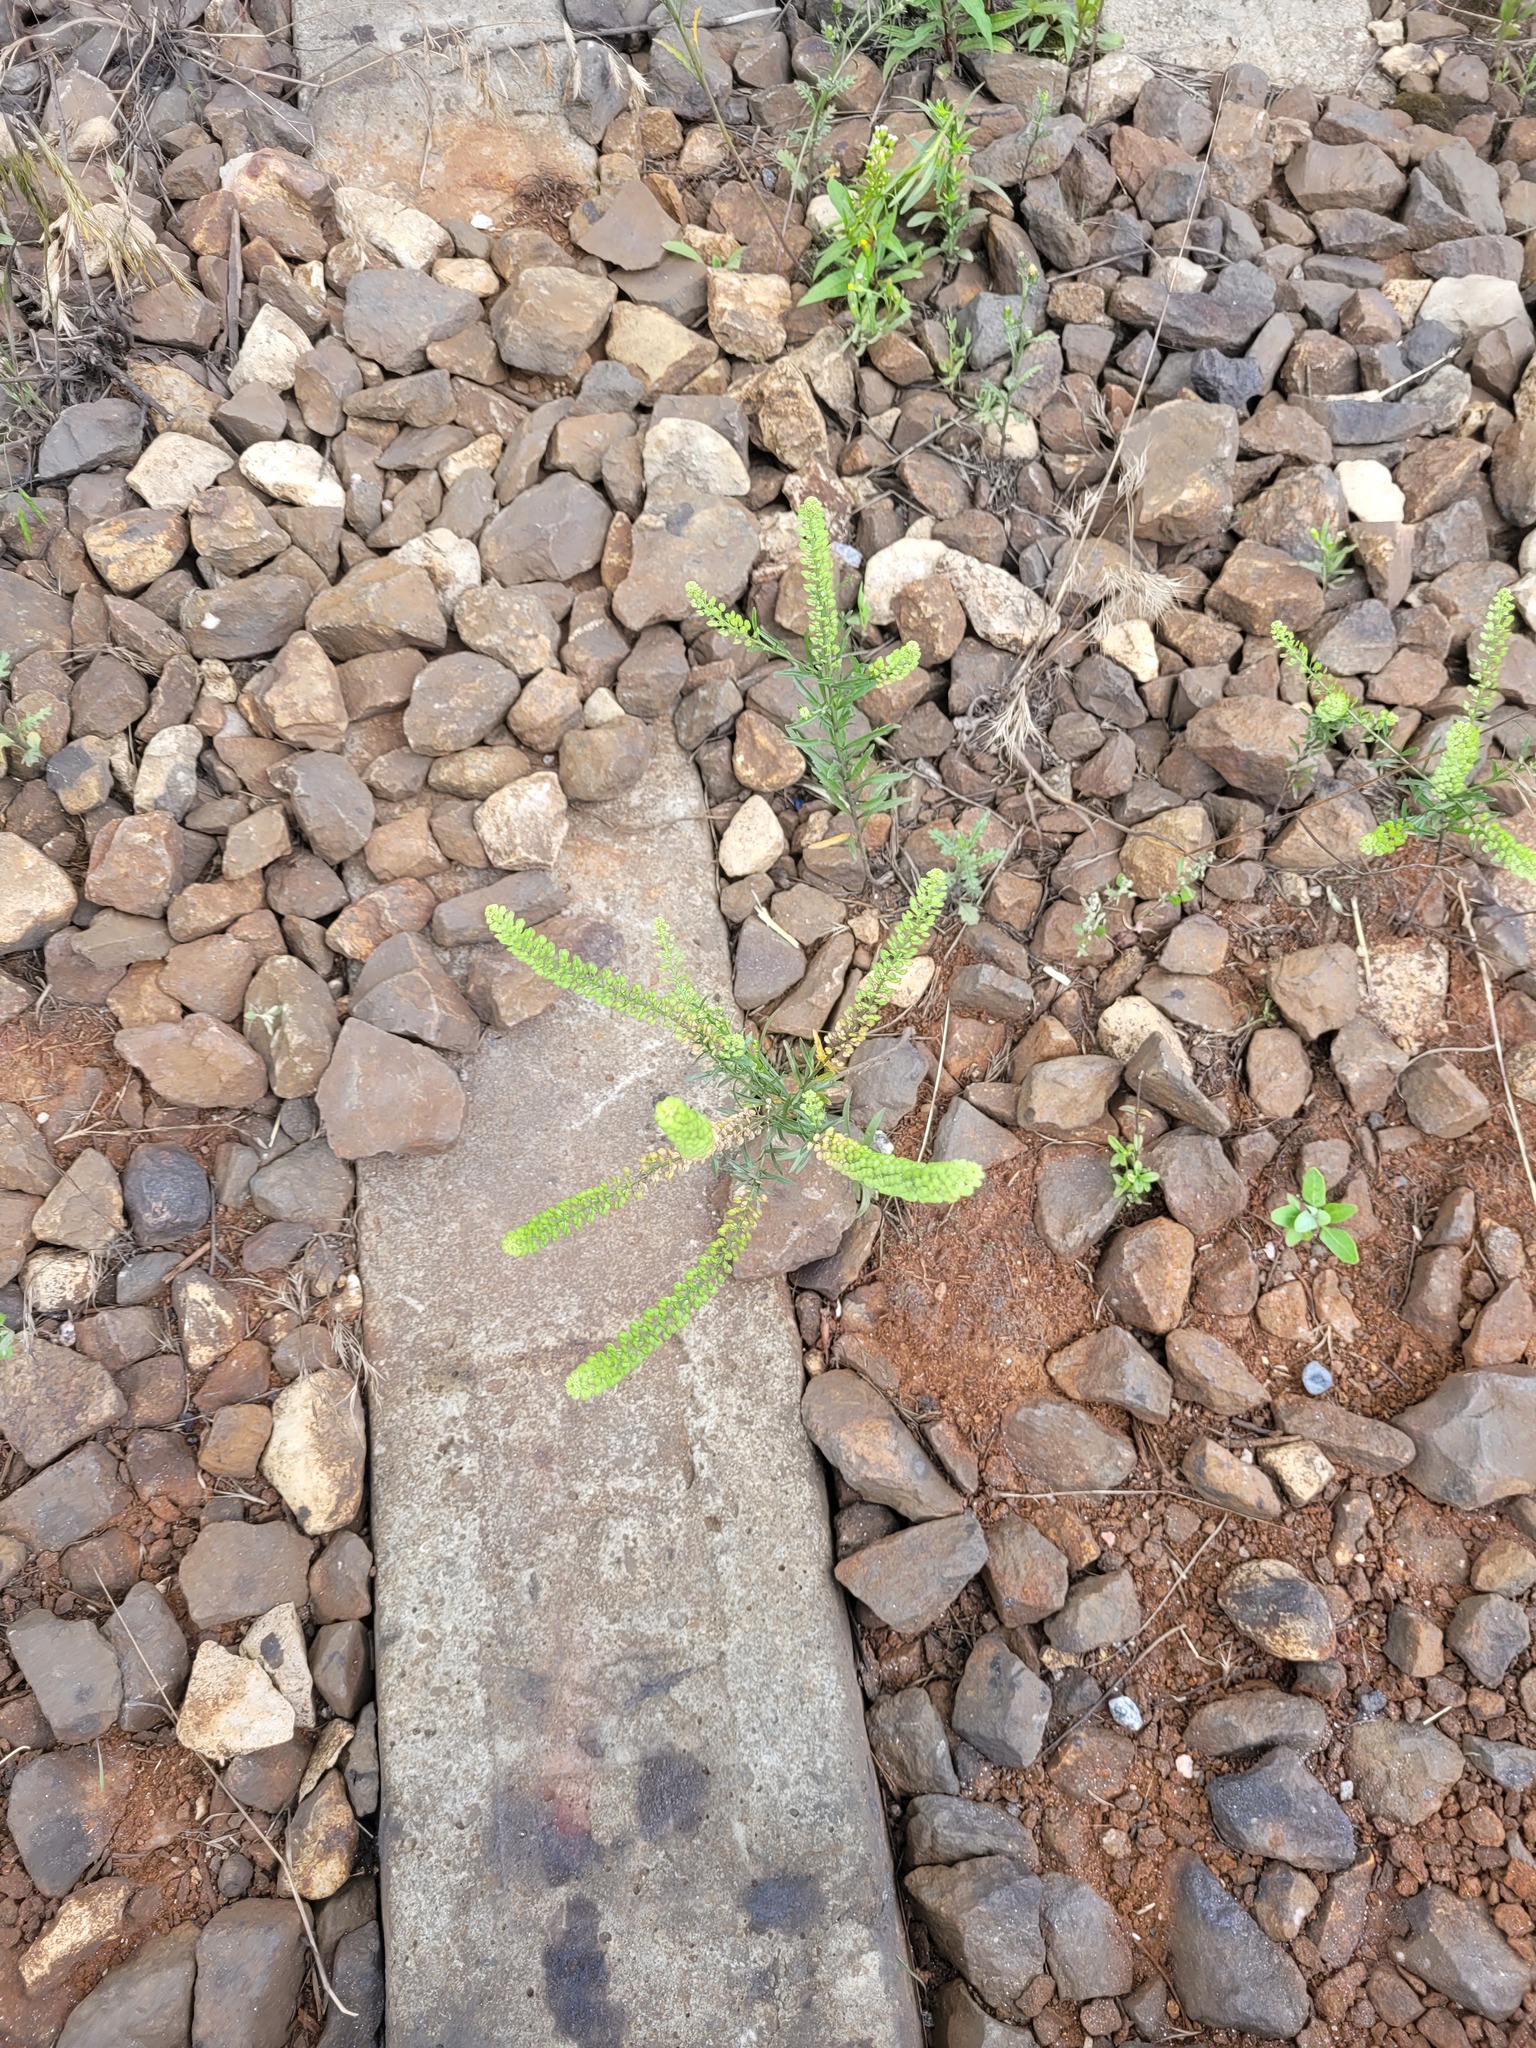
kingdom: Plantae
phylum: Tracheophyta
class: Magnoliopsida
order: Brassicales
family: Brassicaceae
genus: Lepidium
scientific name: Lepidium densiflorum
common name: Miner's pepperwort
